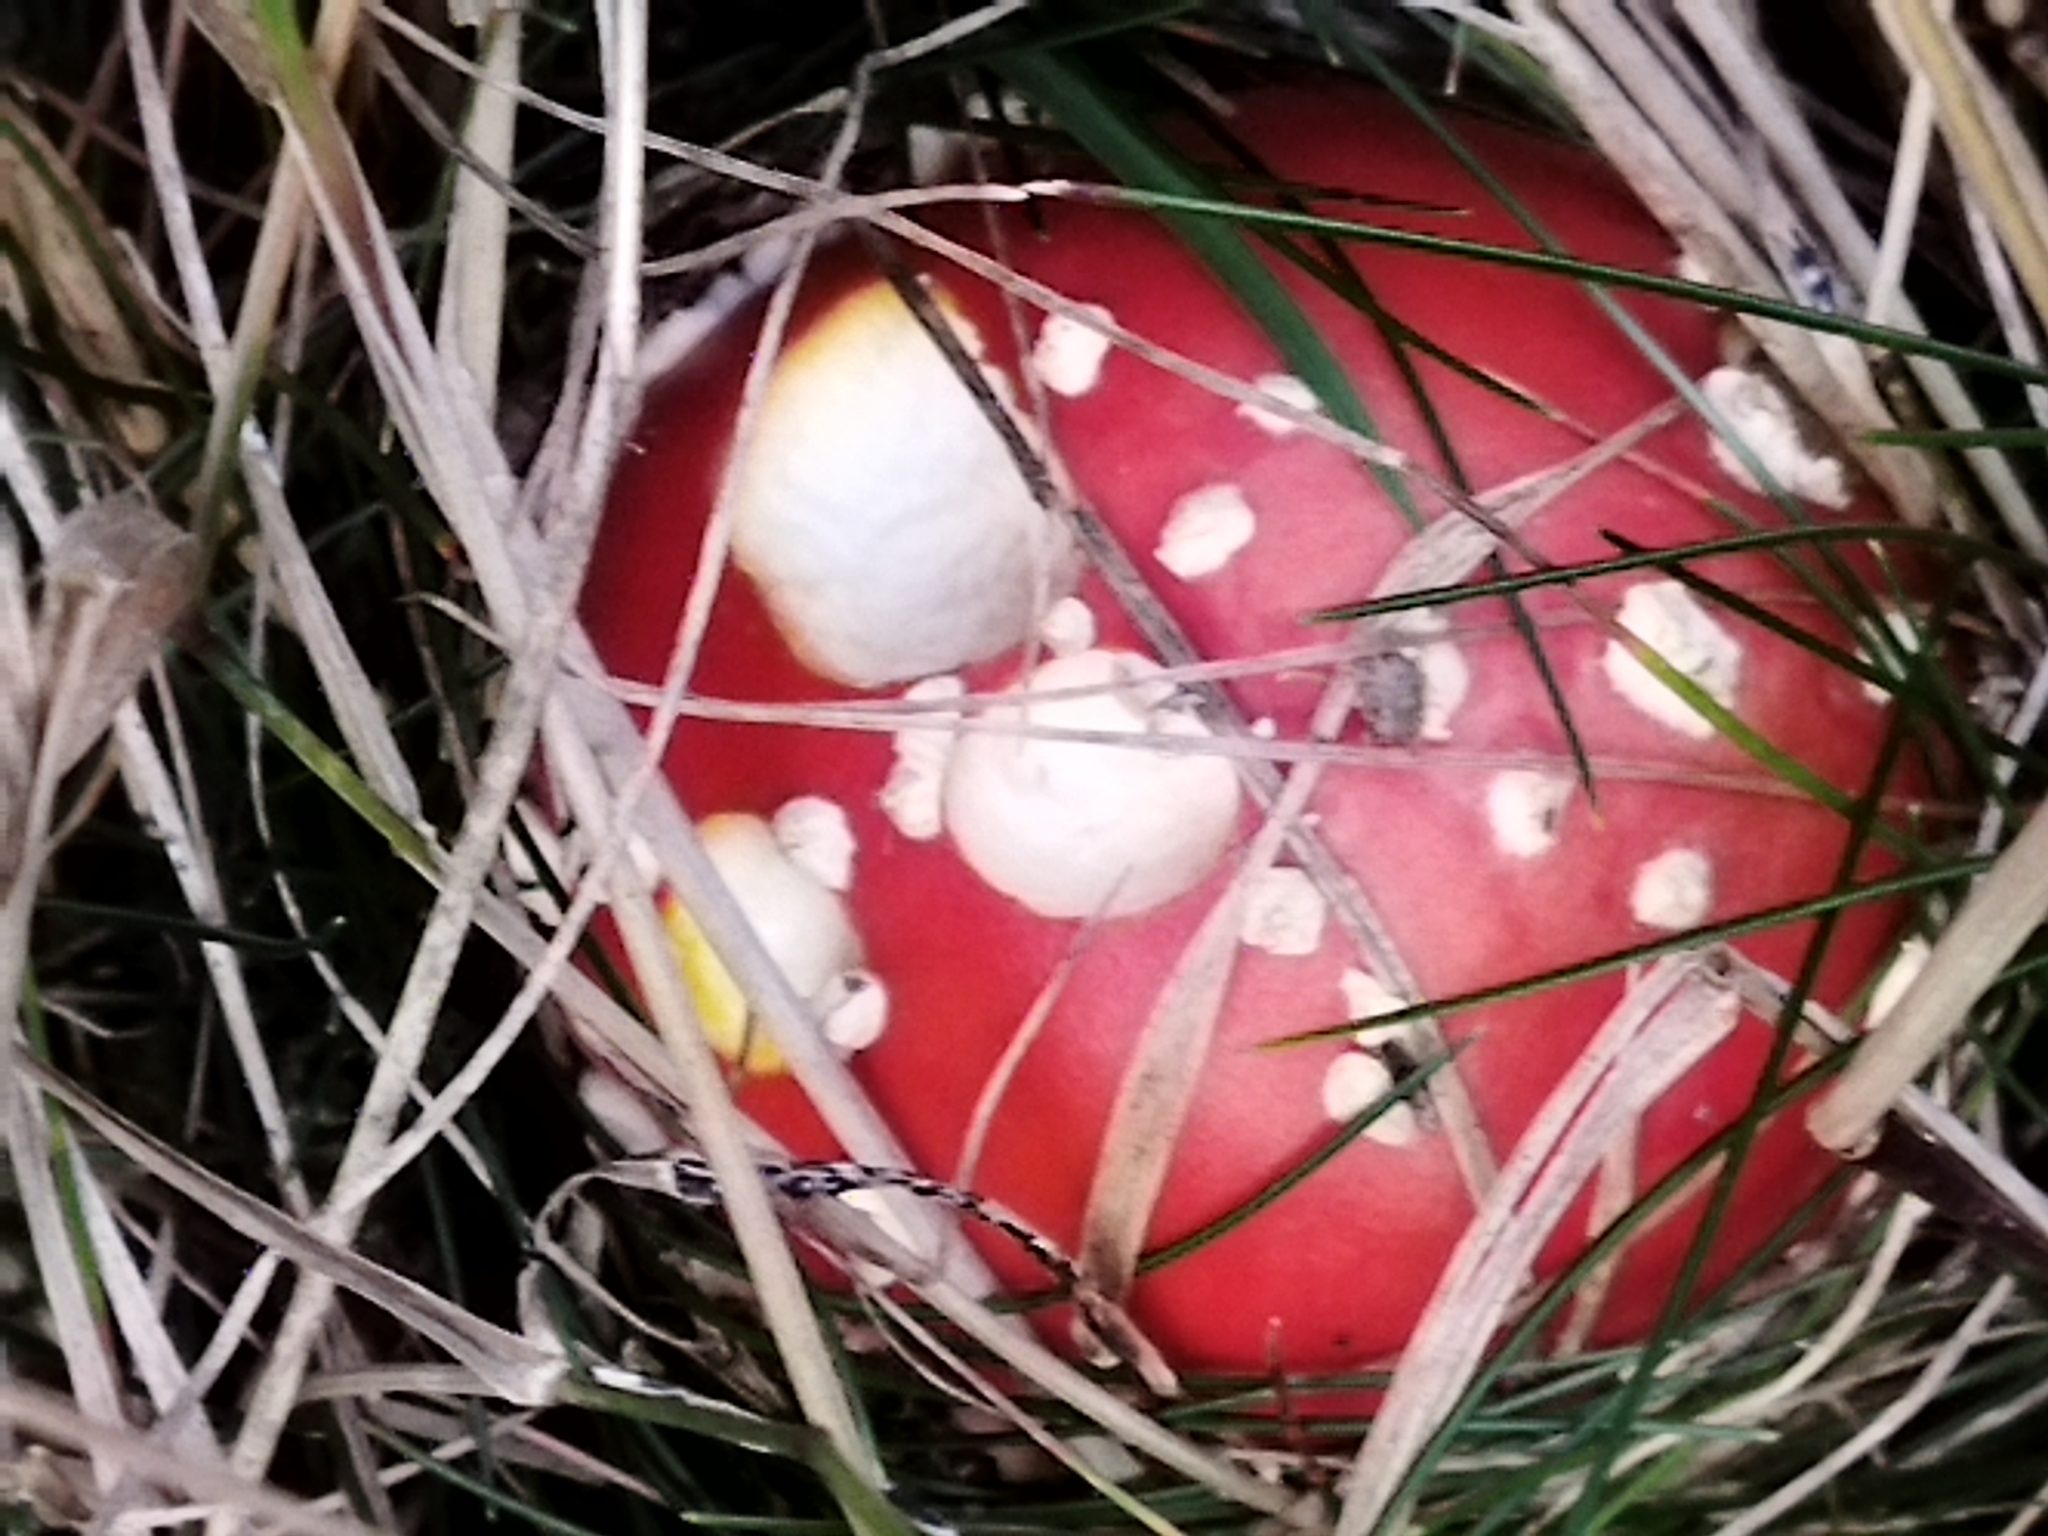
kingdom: Fungi
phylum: Basidiomycota
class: Agaricomycetes
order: Agaricales
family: Amanitaceae
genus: Amanita
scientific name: Amanita muscaria
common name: Fly agaric
